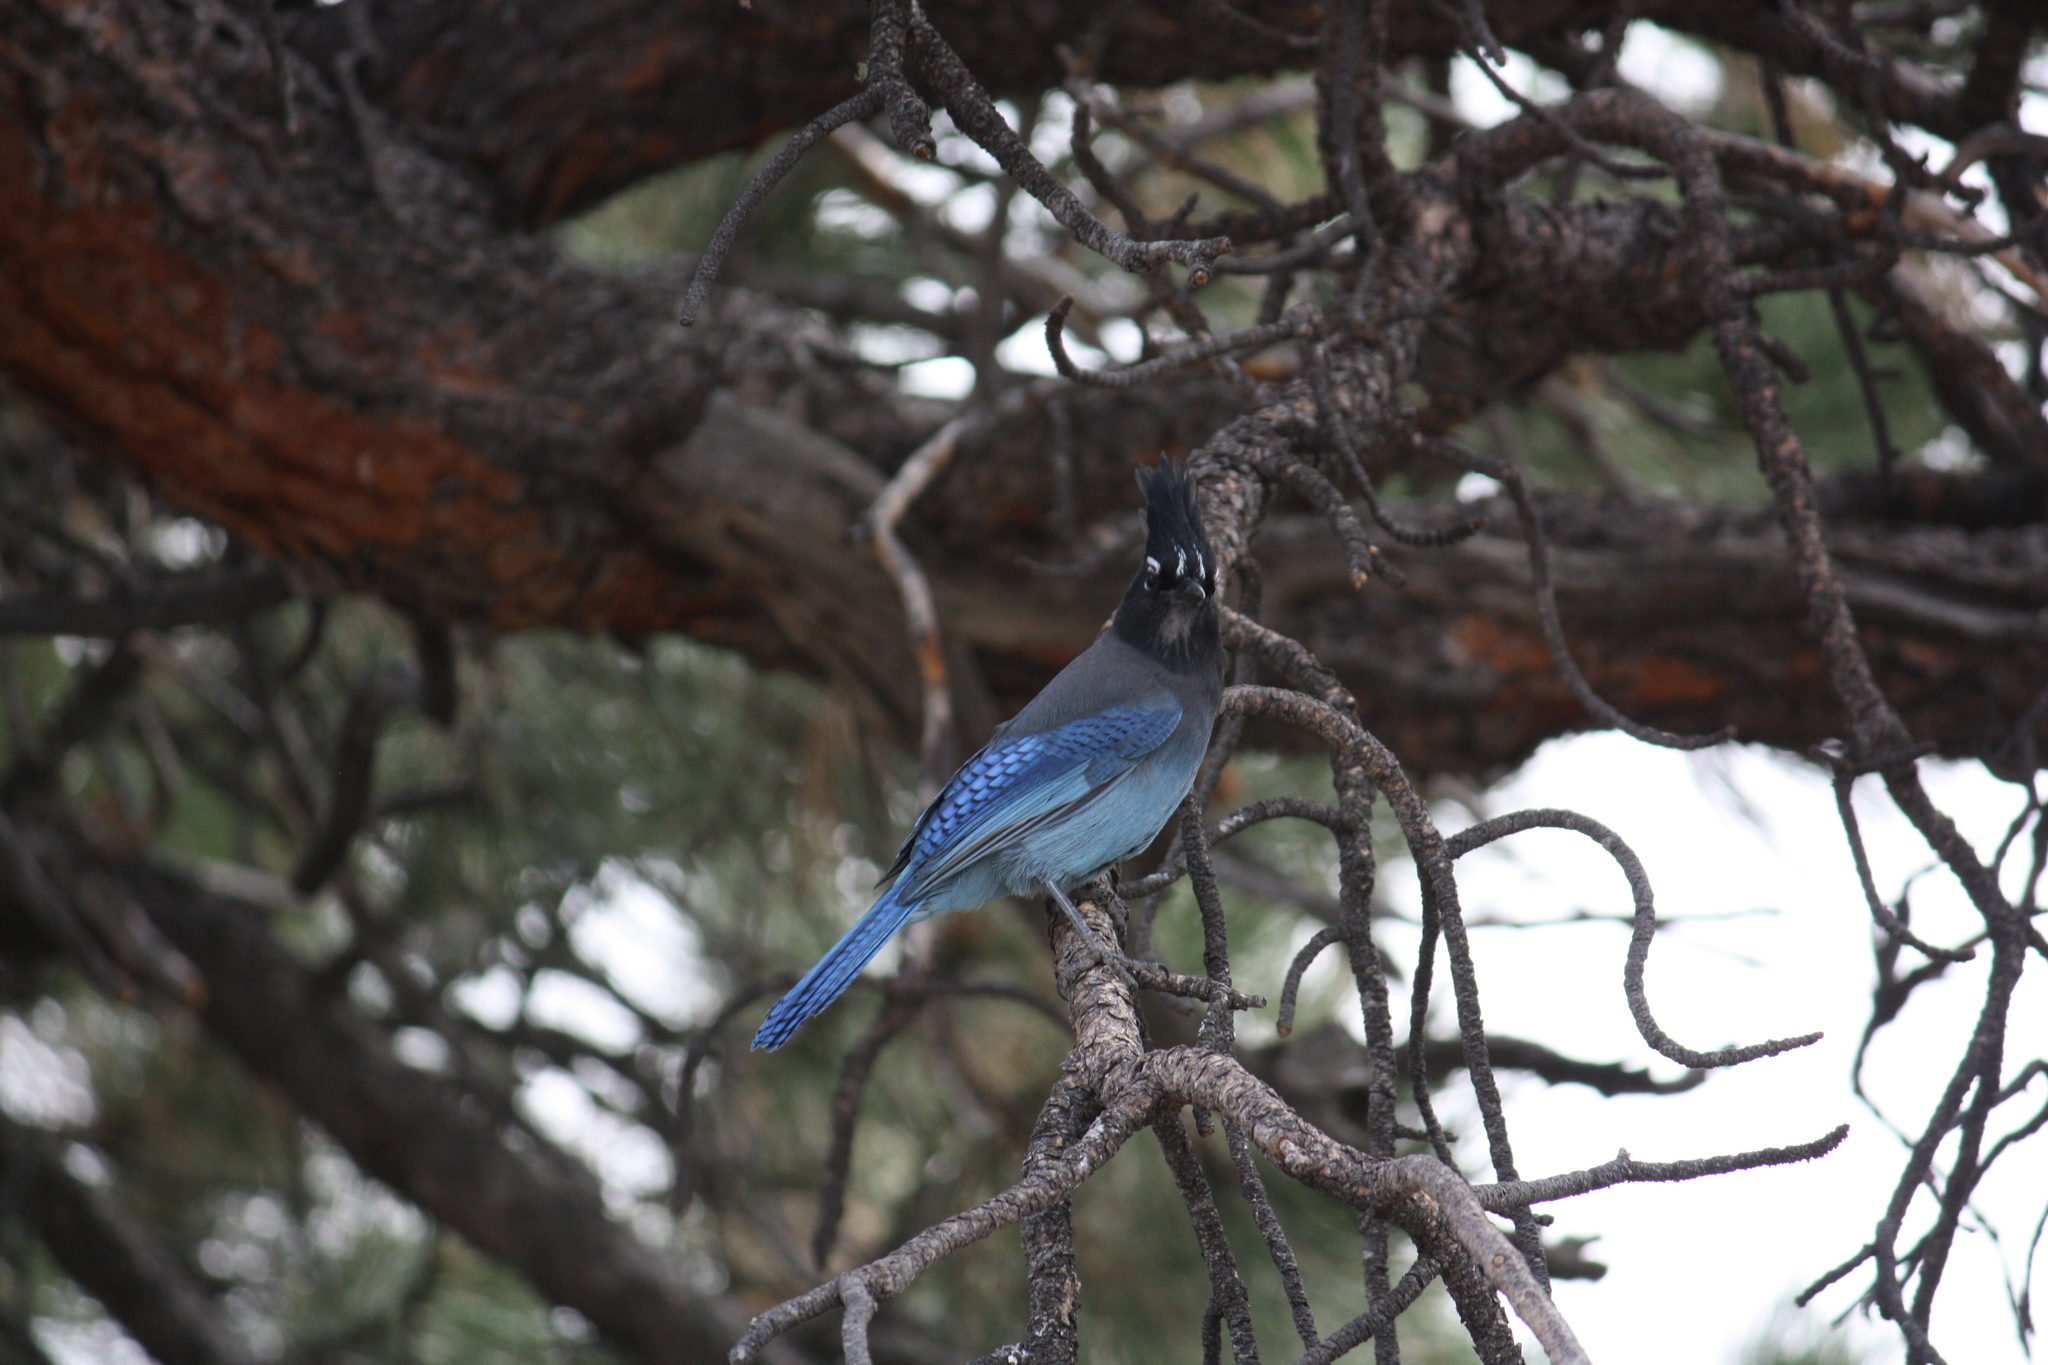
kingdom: Animalia
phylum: Chordata
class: Aves
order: Passeriformes
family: Corvidae
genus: Cyanocitta
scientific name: Cyanocitta stelleri
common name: Steller's jay
